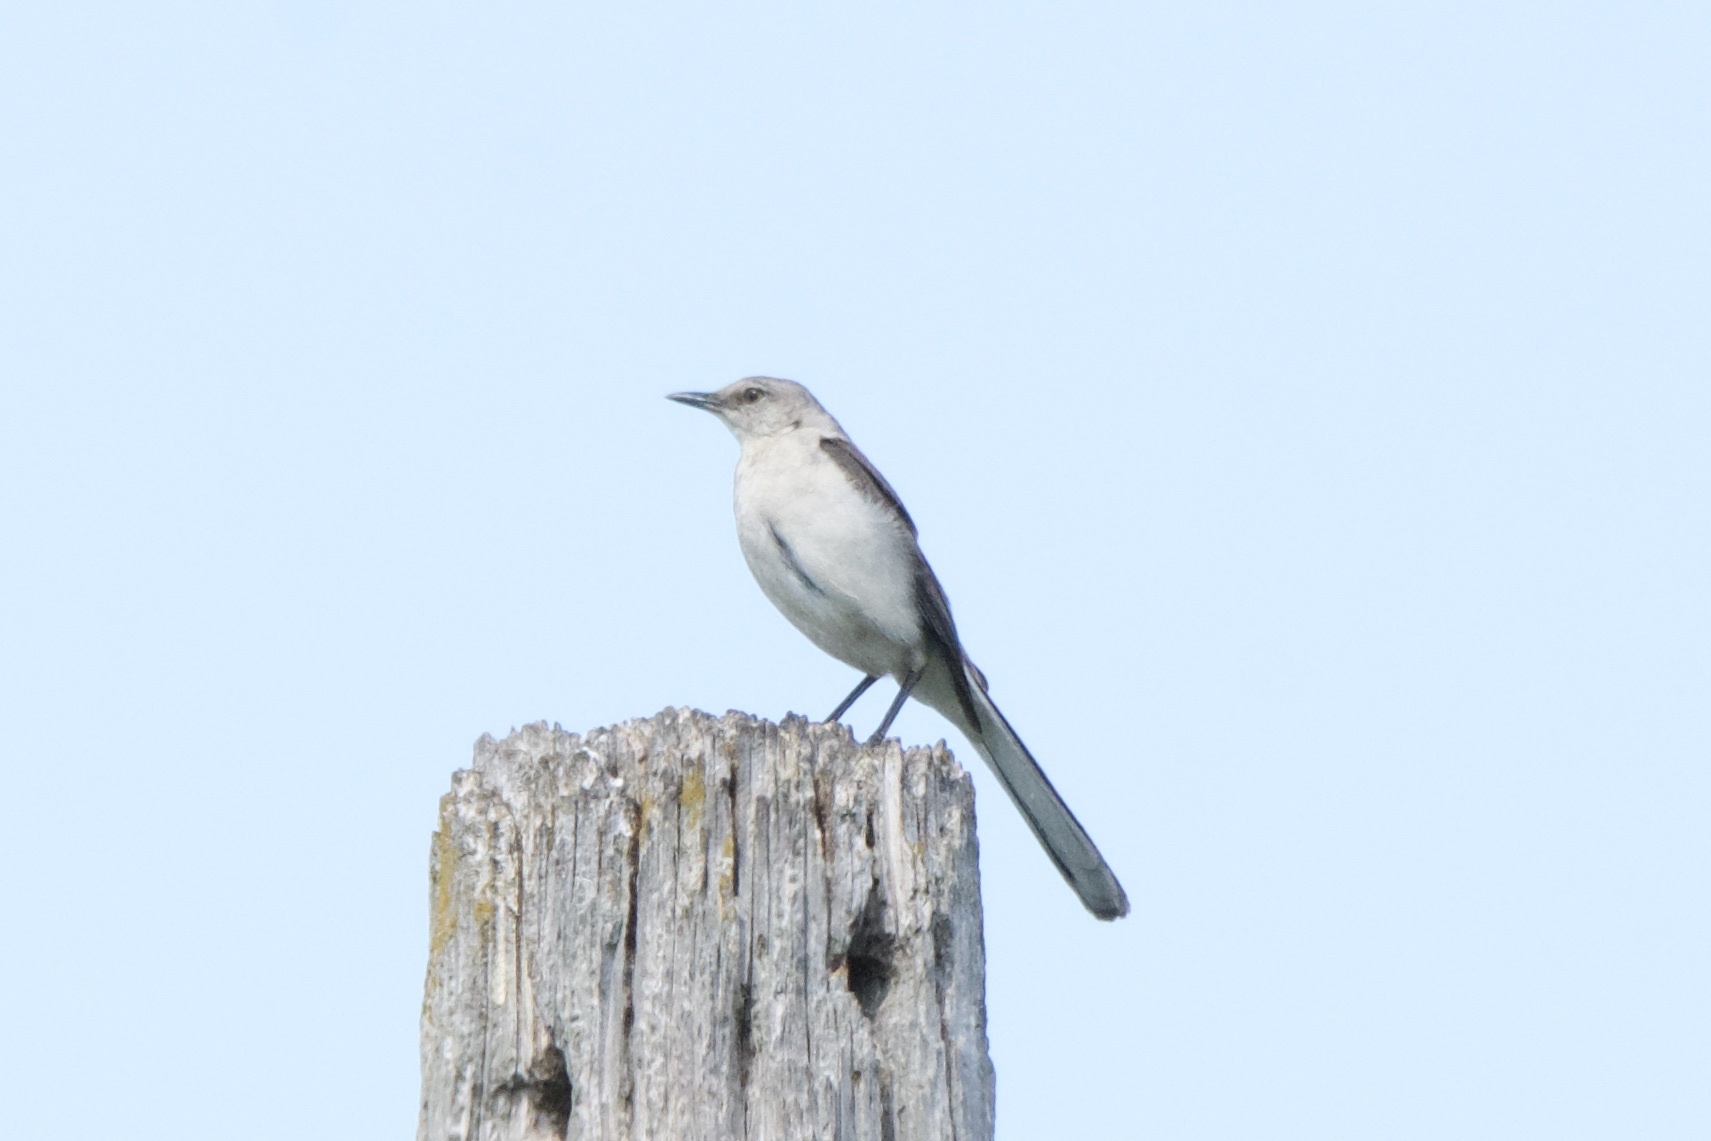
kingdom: Animalia
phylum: Chordata
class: Aves
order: Passeriformes
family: Mimidae
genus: Mimus
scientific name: Mimus polyglottos
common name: Northern mockingbird
